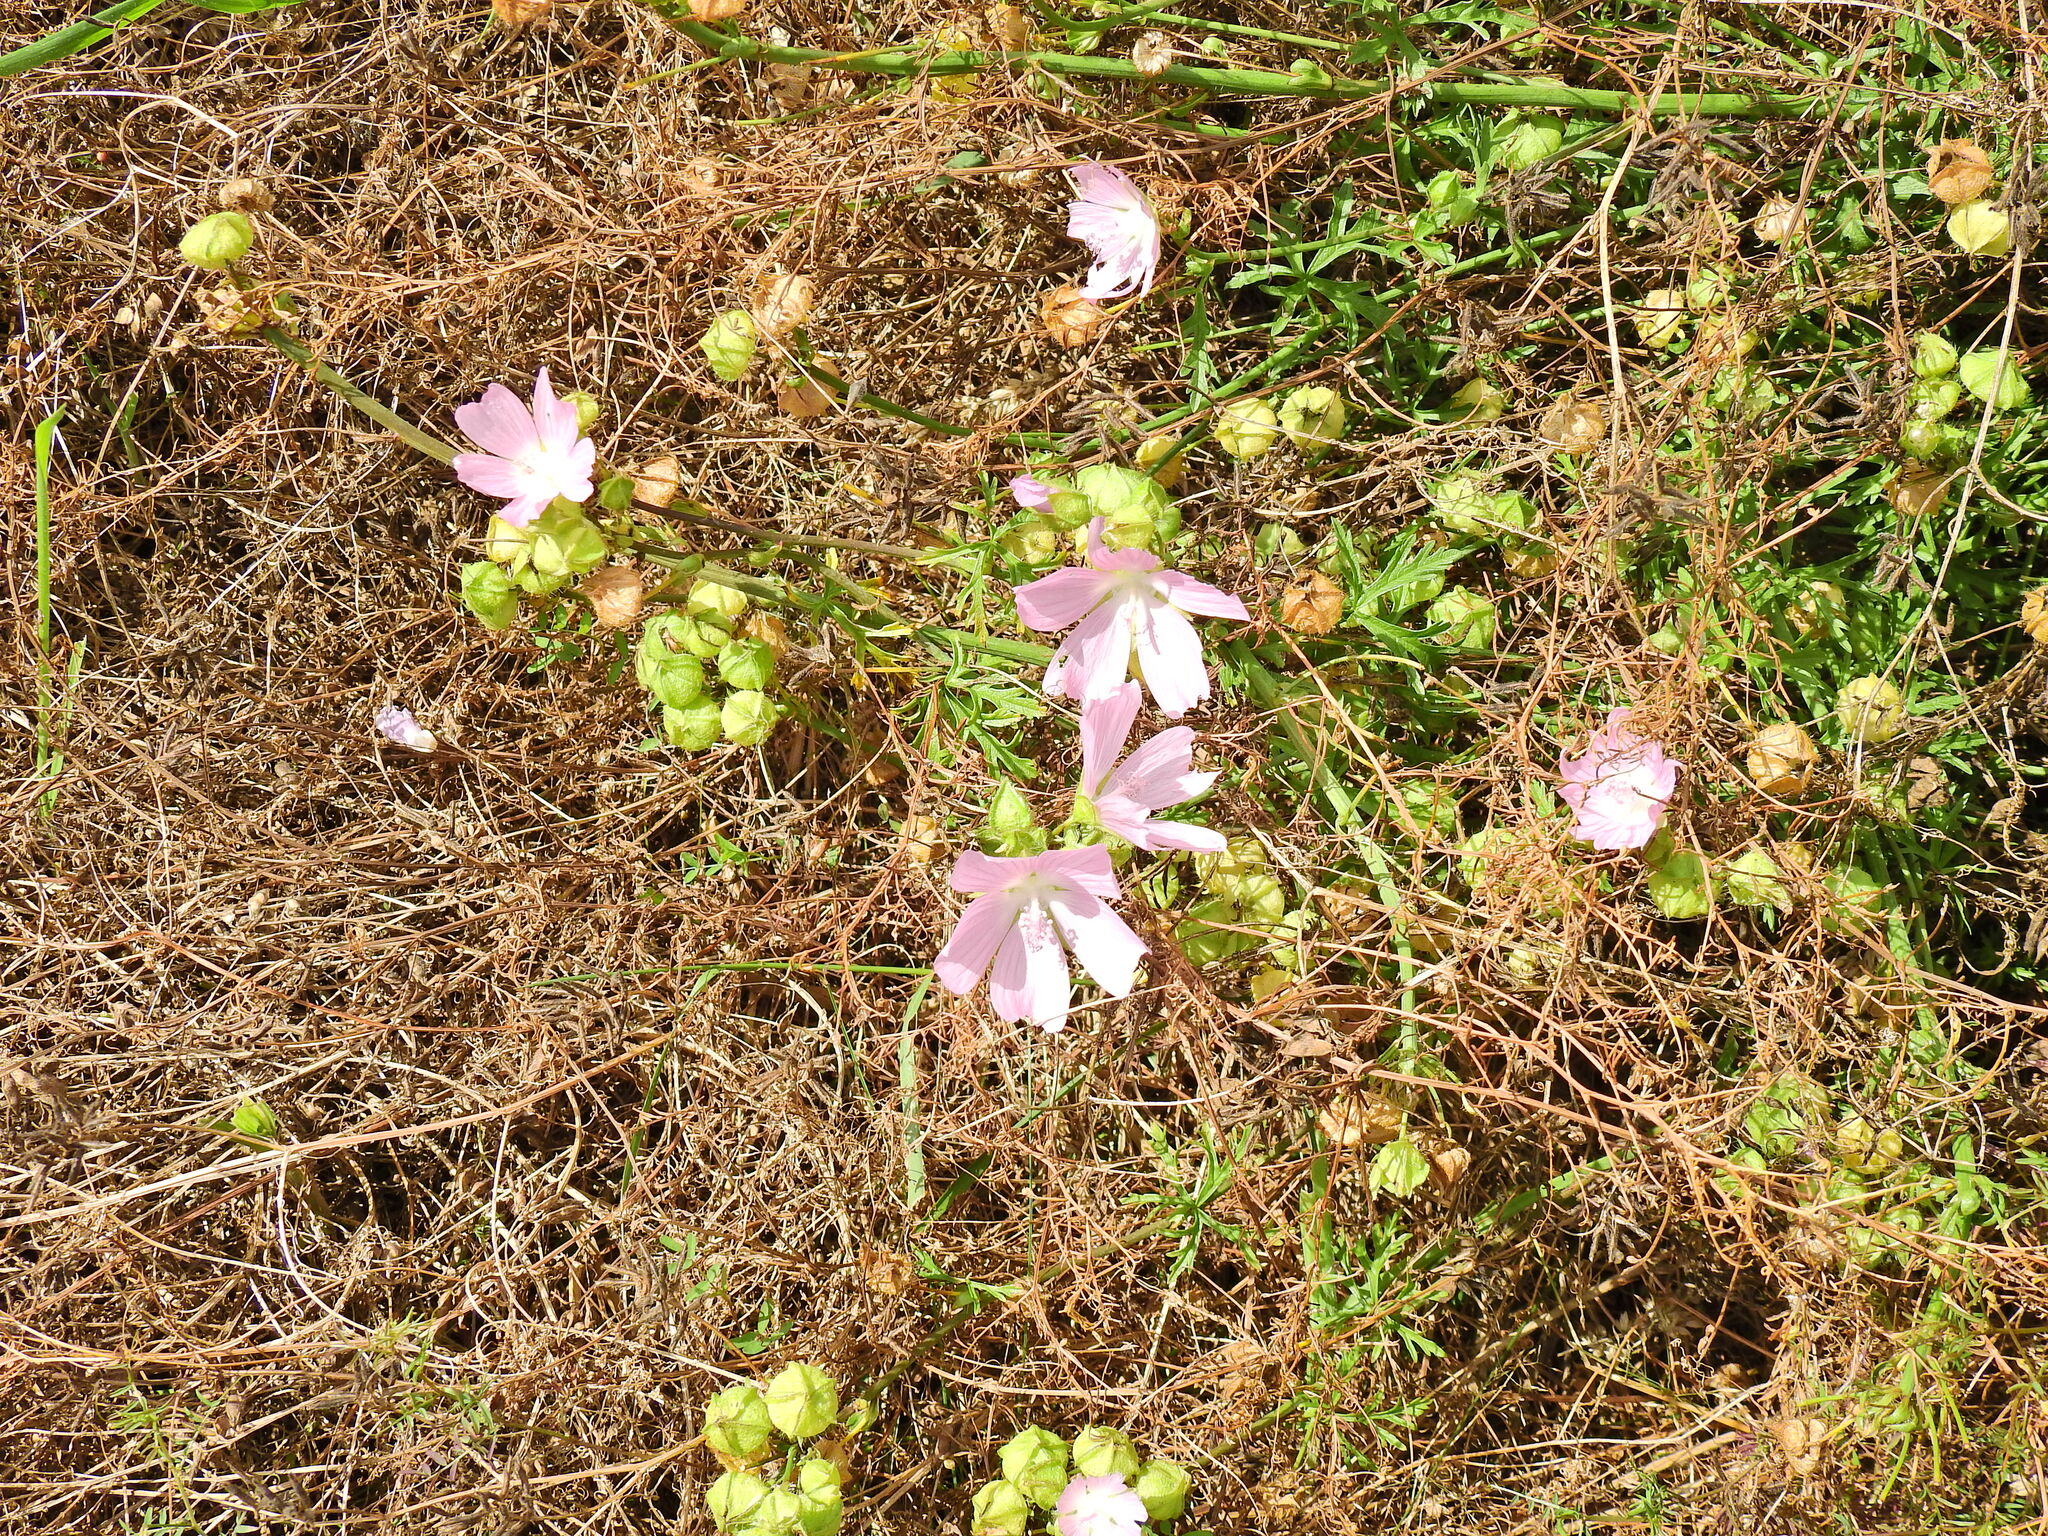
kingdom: Plantae
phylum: Tracheophyta
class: Magnoliopsida
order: Malvales
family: Malvaceae
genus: Malva
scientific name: Malva moschata
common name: Musk mallow
